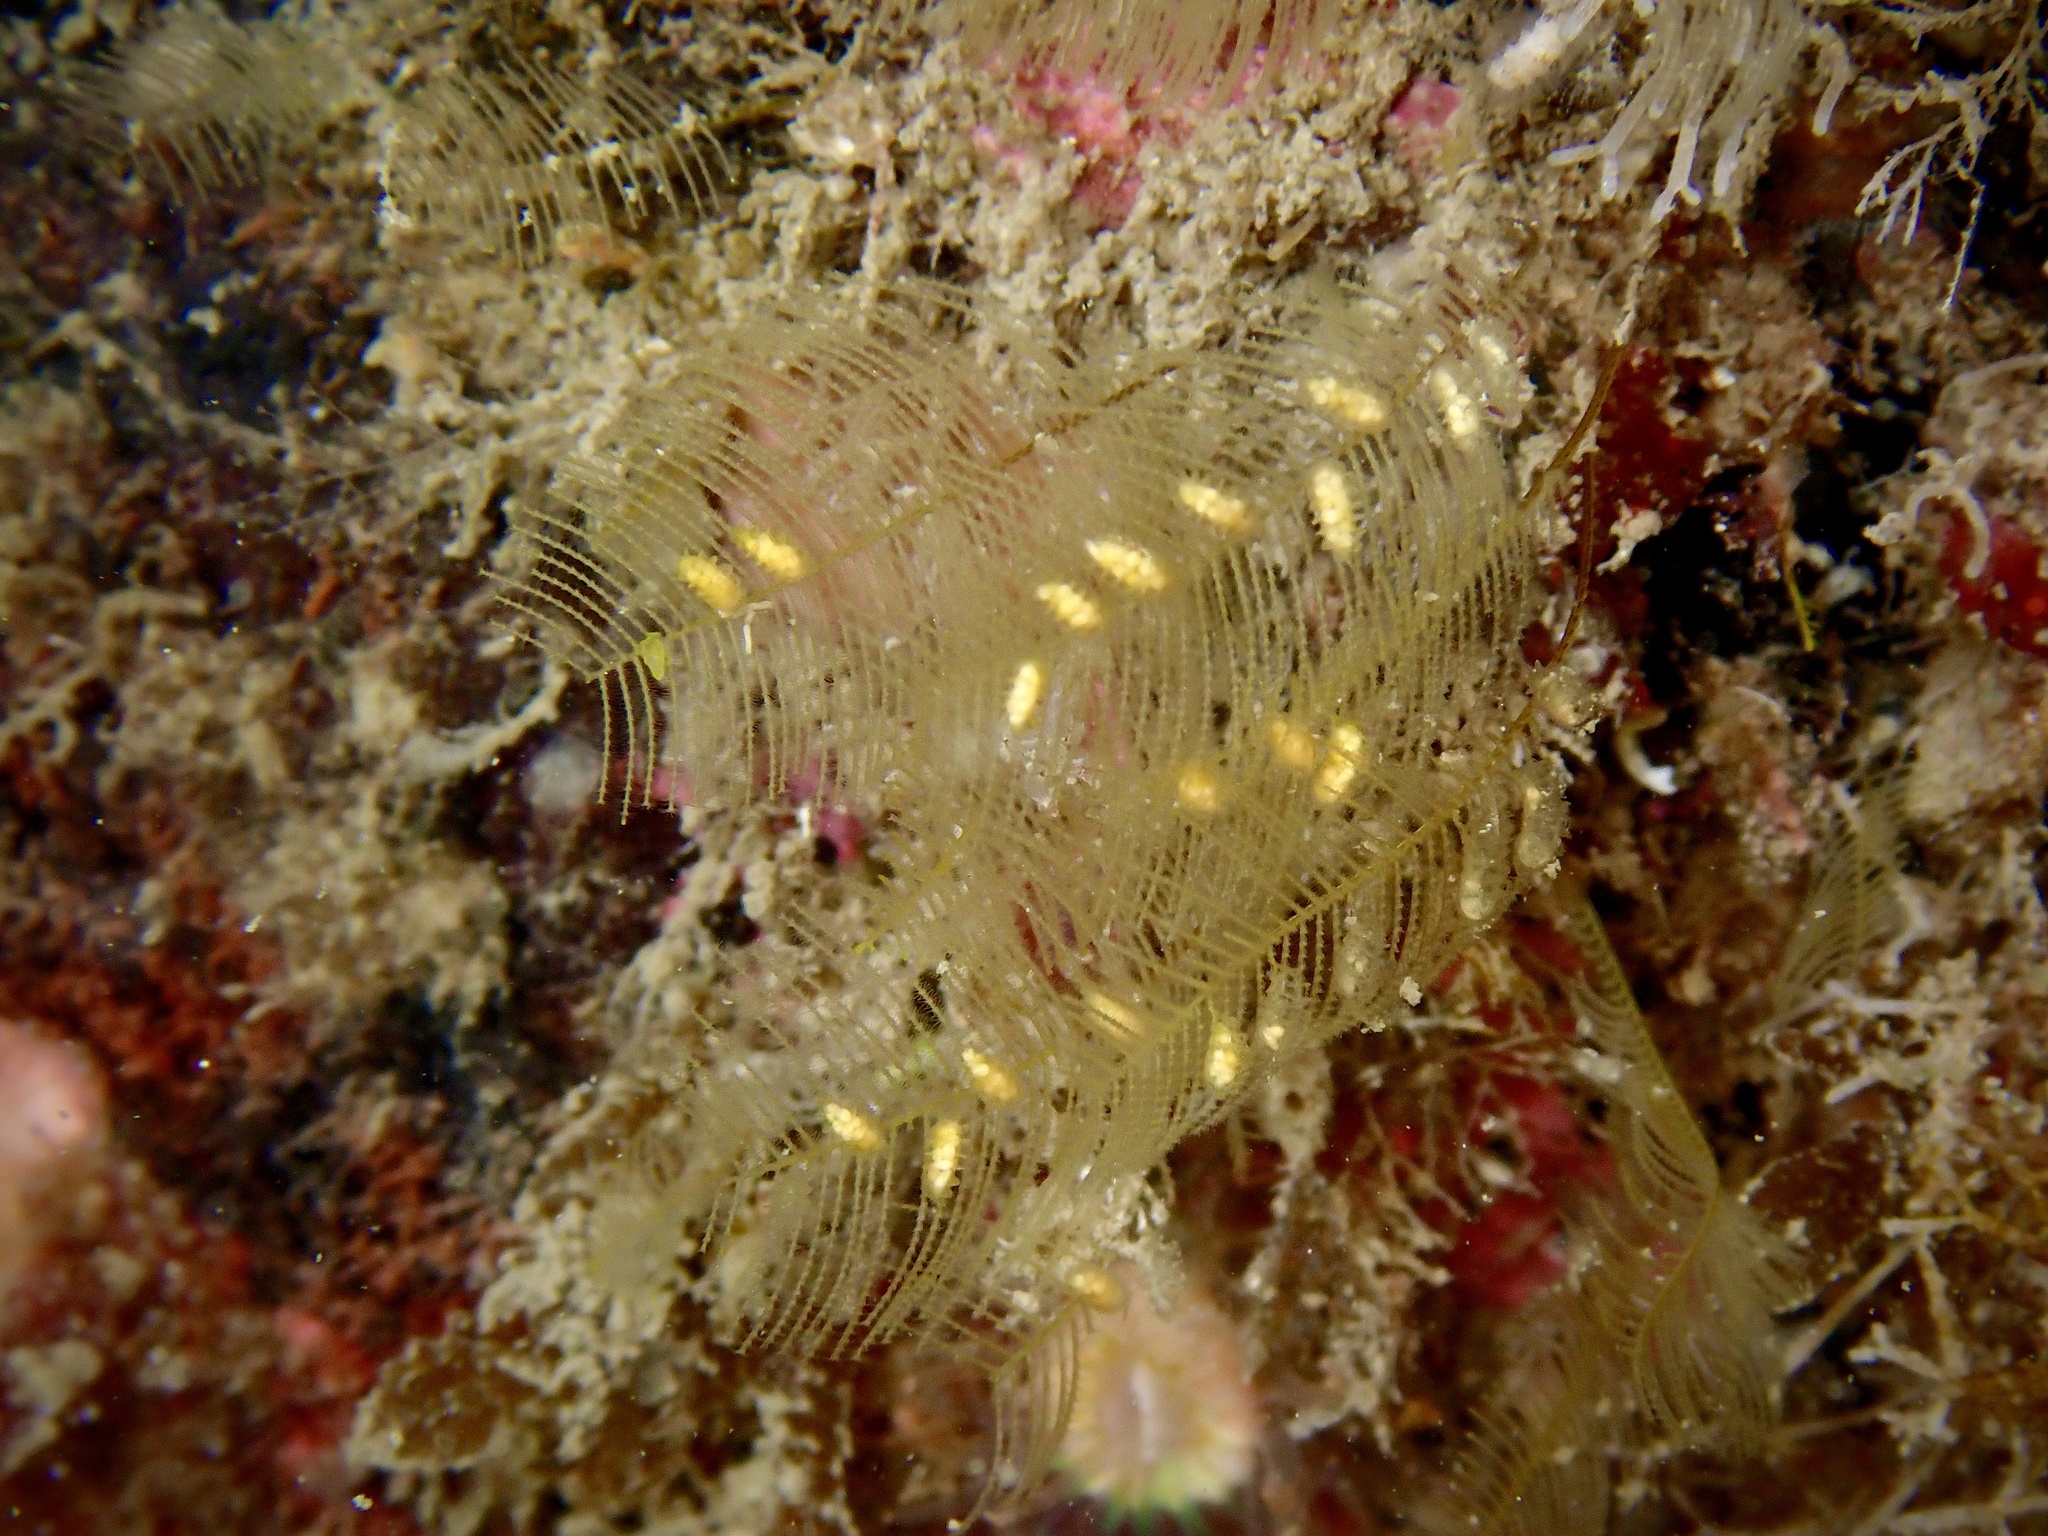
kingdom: Animalia
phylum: Cnidaria
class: Hydrozoa
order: Leptothecata
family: Aglaopheniidae
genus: Aglaophenia
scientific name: Aglaophenia tubulifera
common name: Plume hydroid
